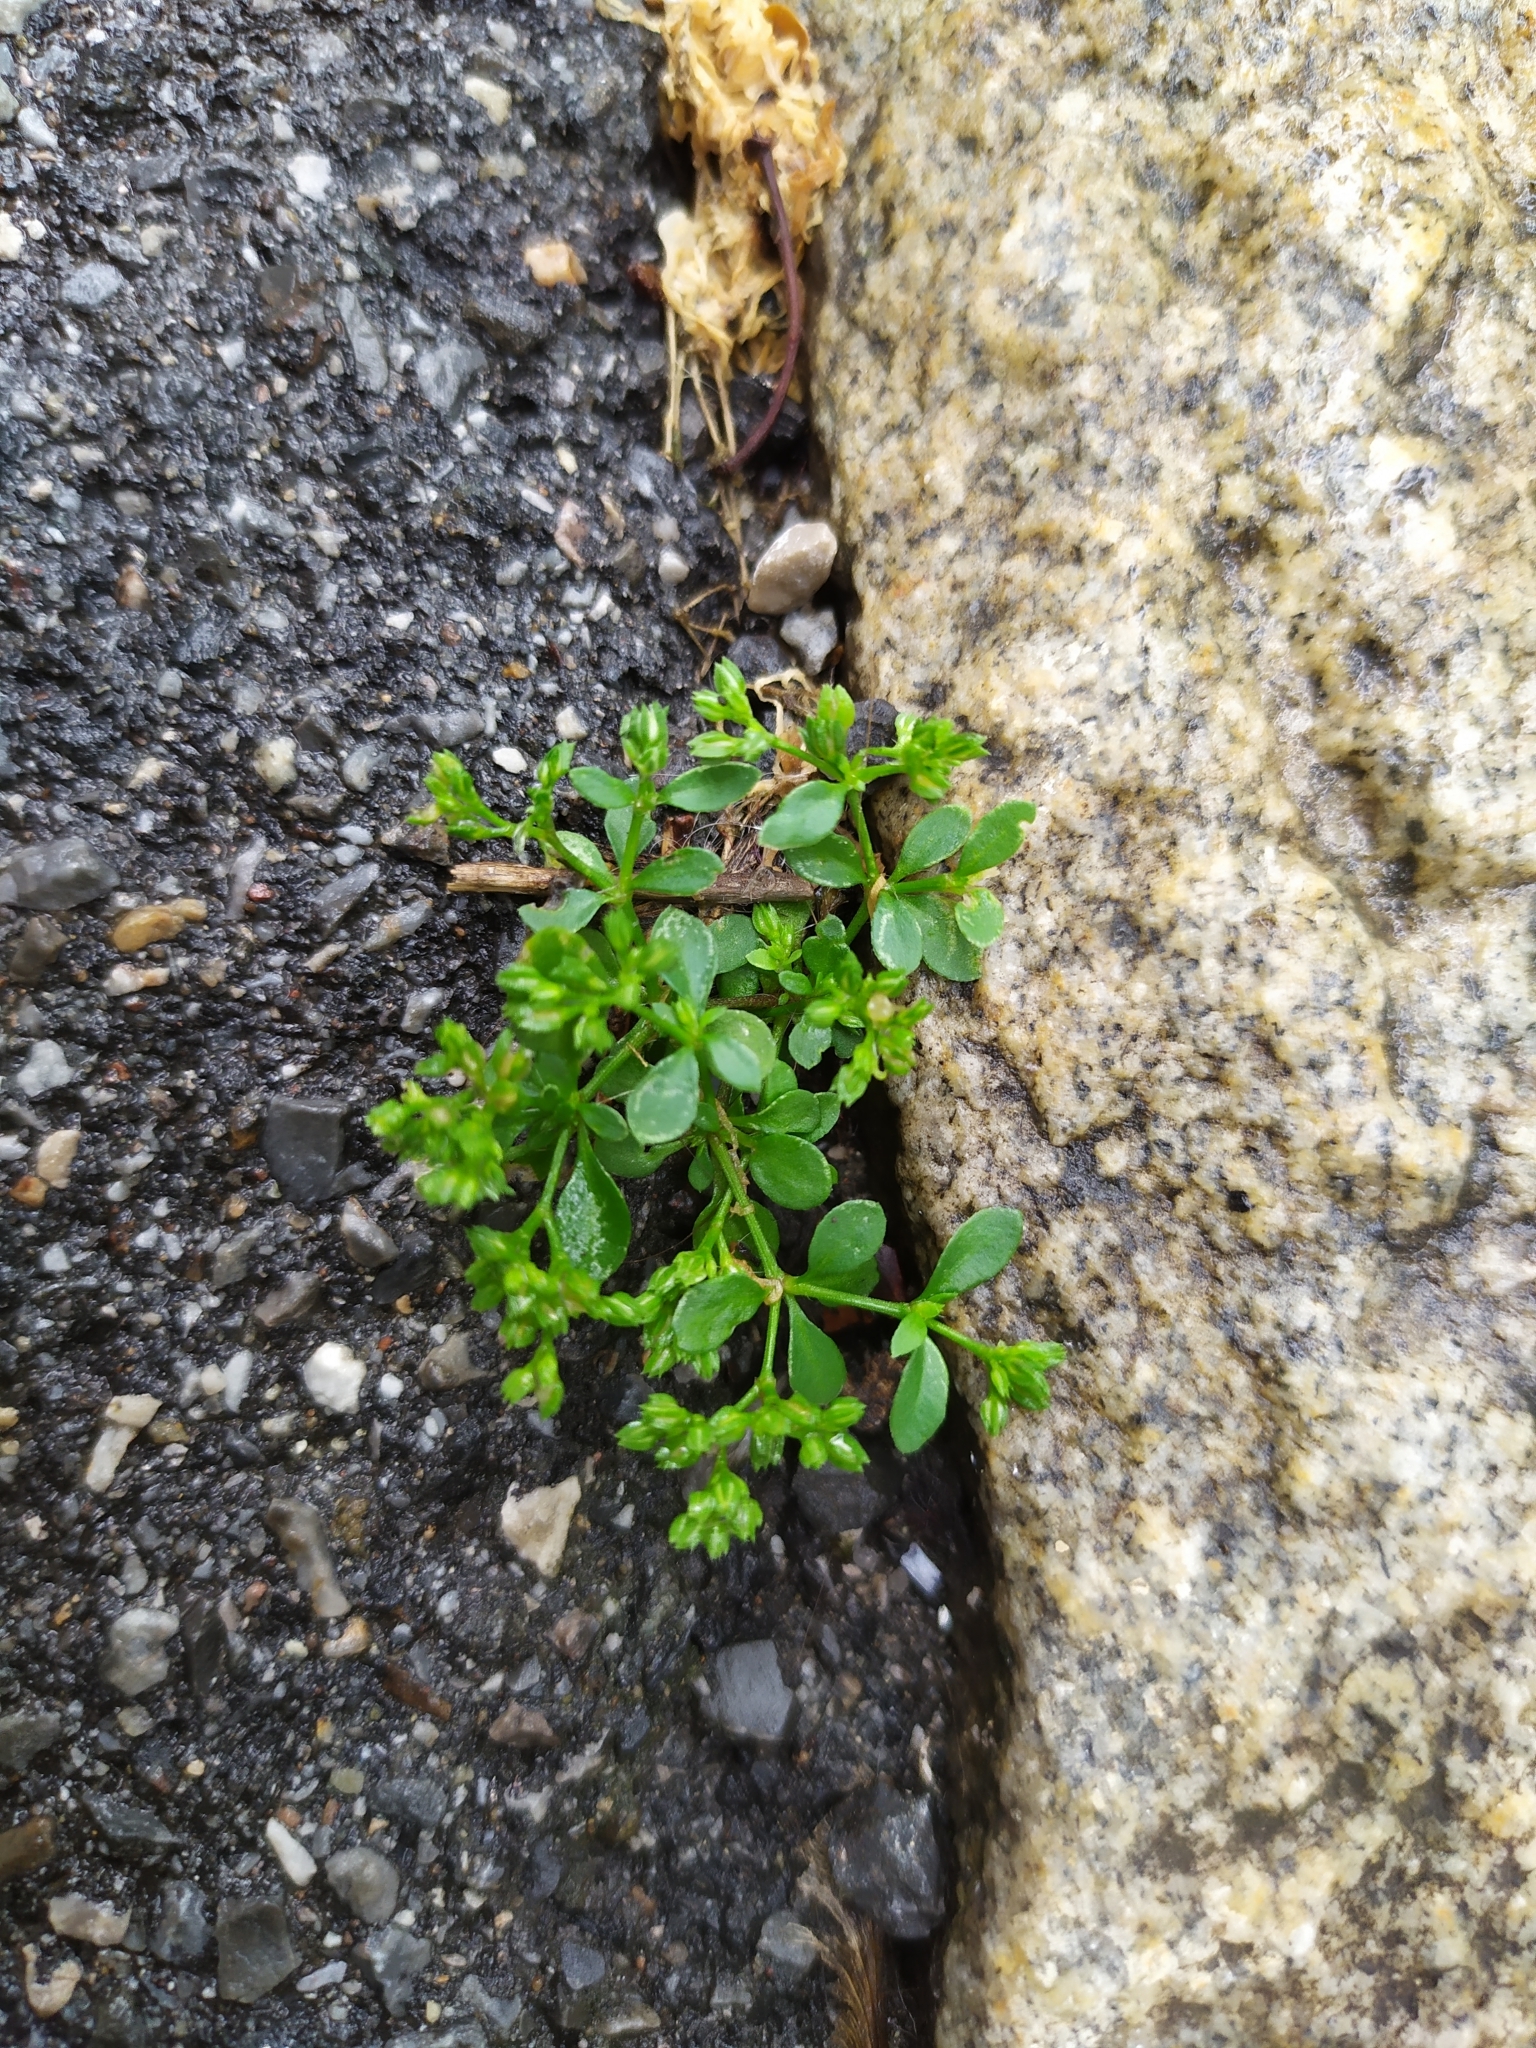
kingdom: Plantae
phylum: Tracheophyta
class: Magnoliopsida
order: Caryophyllales
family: Caryophyllaceae
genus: Polycarpon
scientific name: Polycarpon tetraphyllum
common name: Four-leaved all-seed
